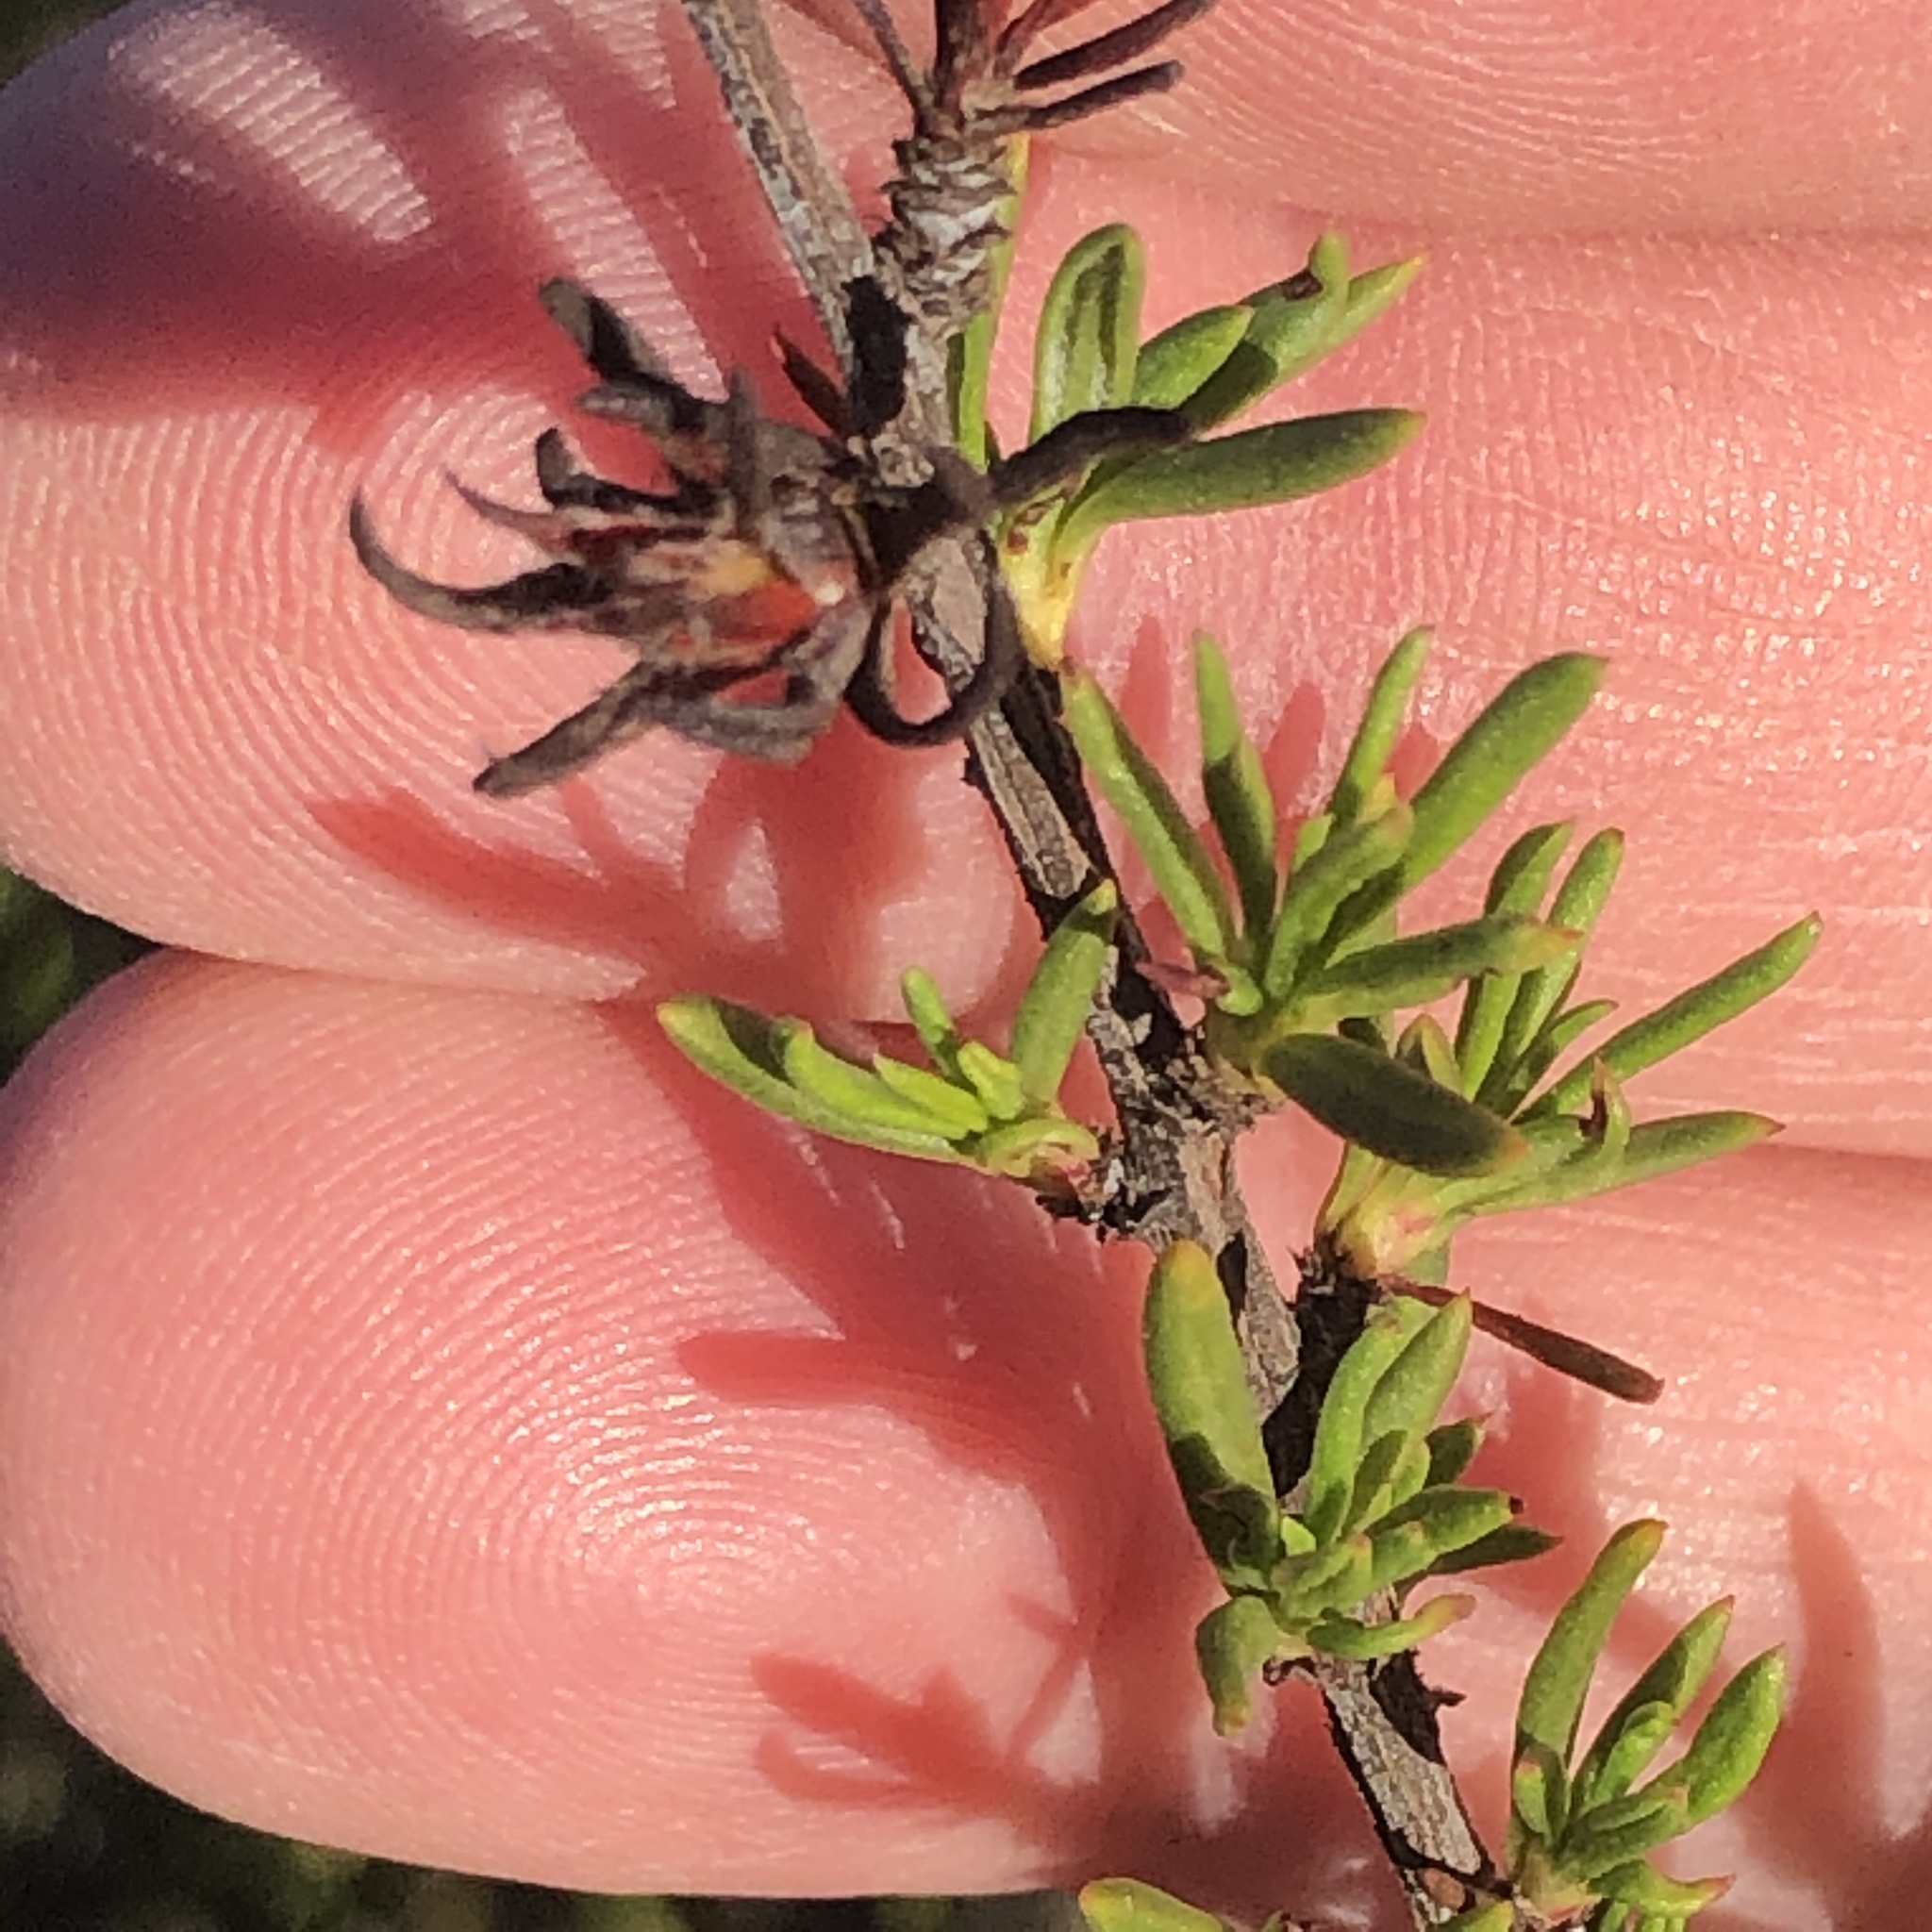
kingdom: Plantae
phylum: Tracheophyta
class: Magnoliopsida
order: Caryophyllales
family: Polygonaceae
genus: Eriogonum
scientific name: Eriogonum fasciculatum
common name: California wild buckwheat
